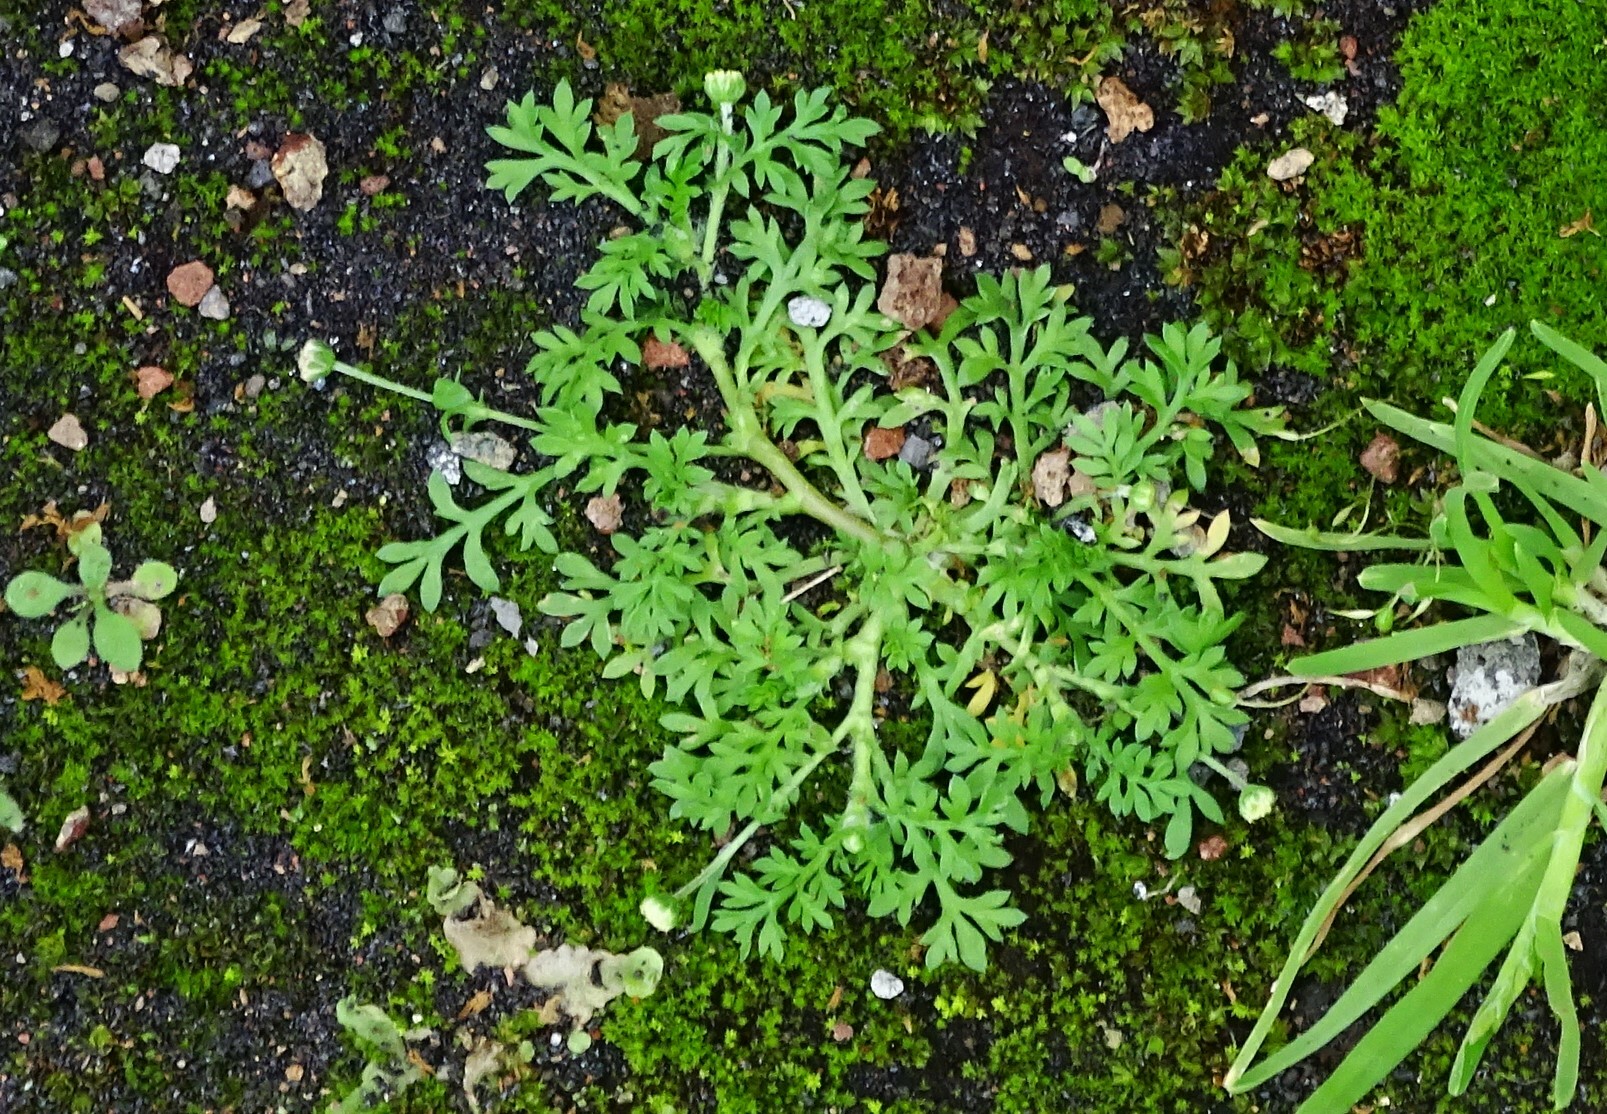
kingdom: Plantae
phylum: Tracheophyta
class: Magnoliopsida
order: Asterales
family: Asteraceae
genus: Cotula
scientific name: Cotula australis
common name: Australian waterbuttons
